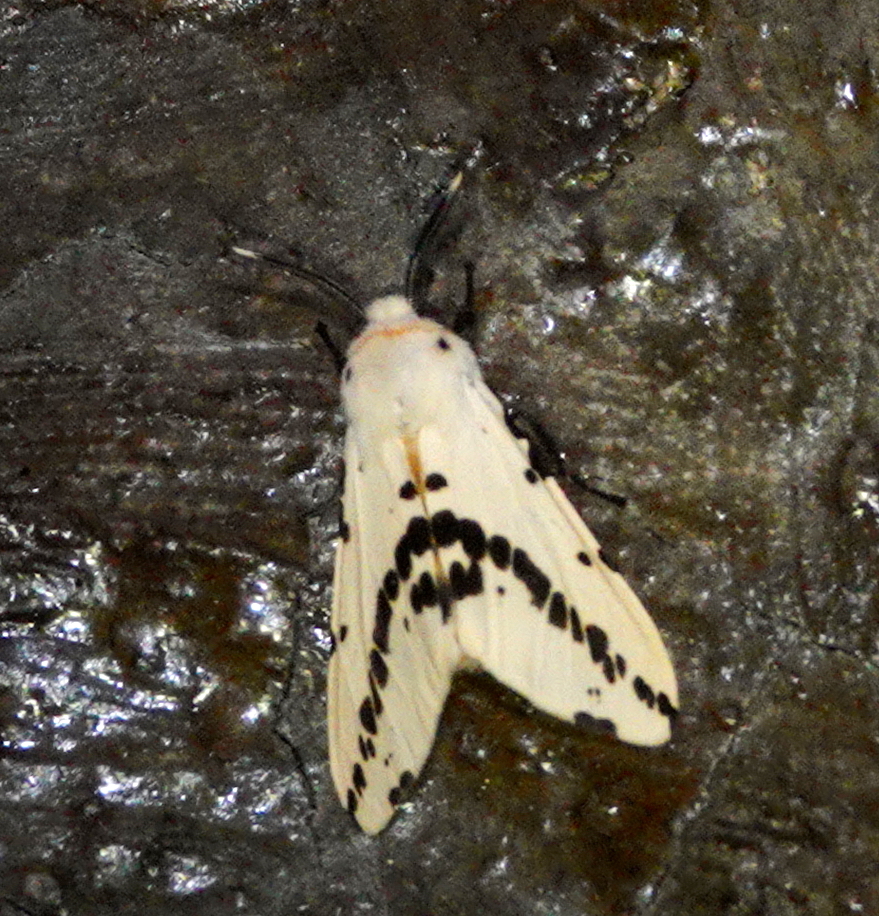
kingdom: Animalia
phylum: Arthropoda
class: Insecta
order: Lepidoptera
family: Erebidae
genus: Lemyra
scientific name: Lemyra
